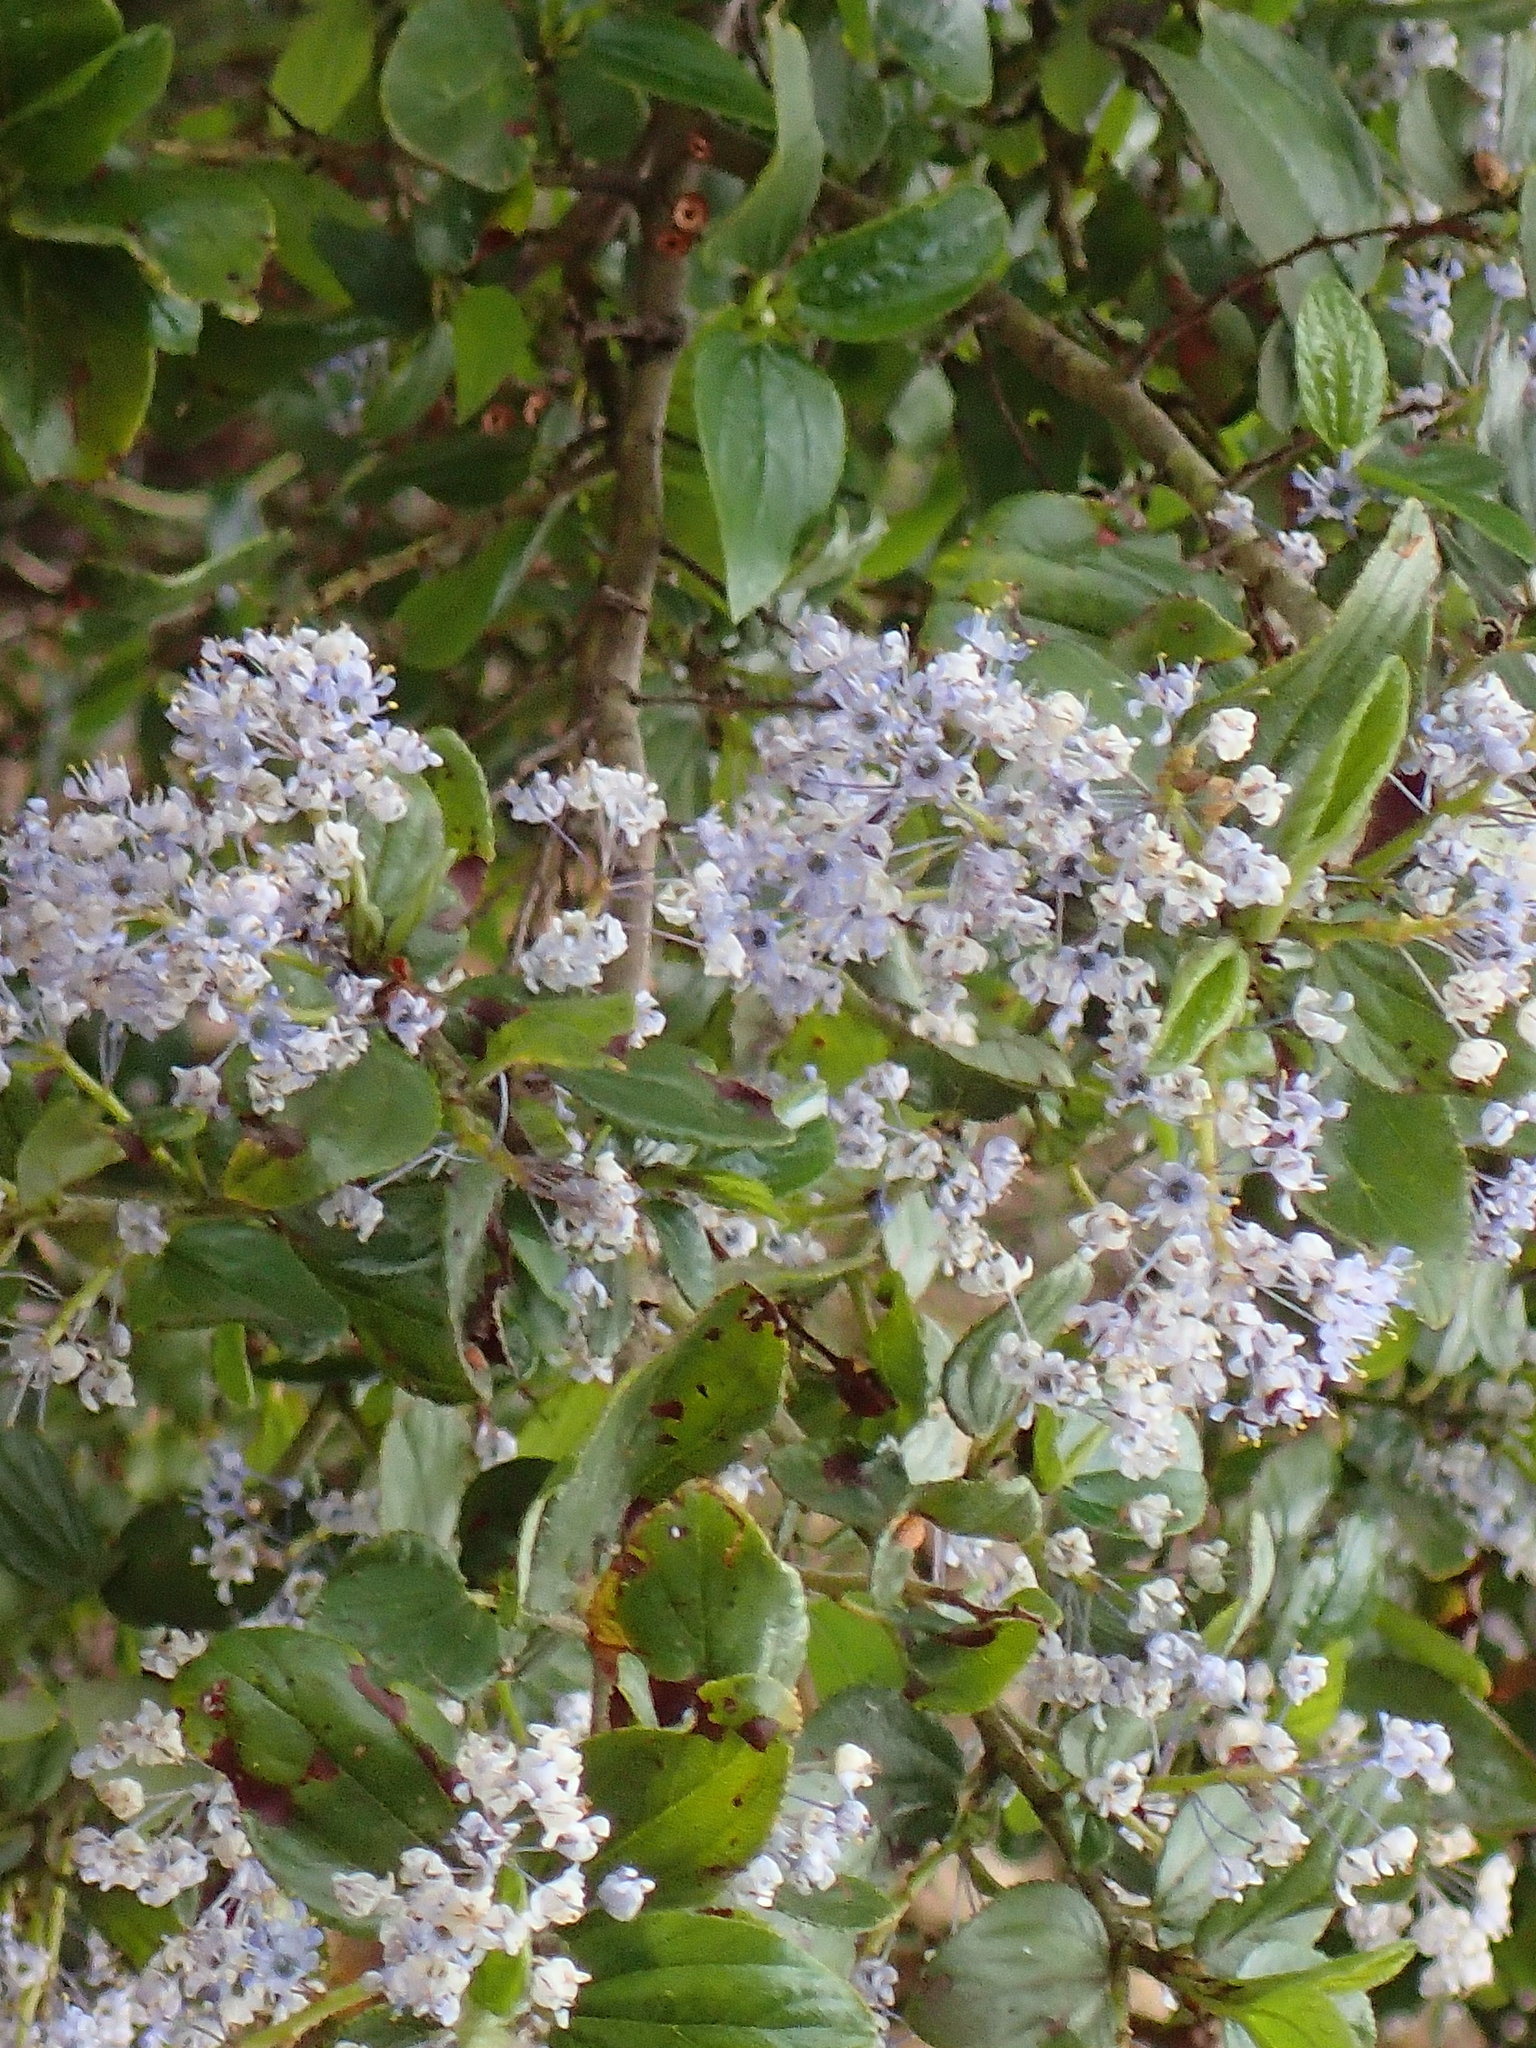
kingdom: Plantae
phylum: Tracheophyta
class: Magnoliopsida
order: Rosales
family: Rhamnaceae
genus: Ceanothus
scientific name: Ceanothus oliganthus
